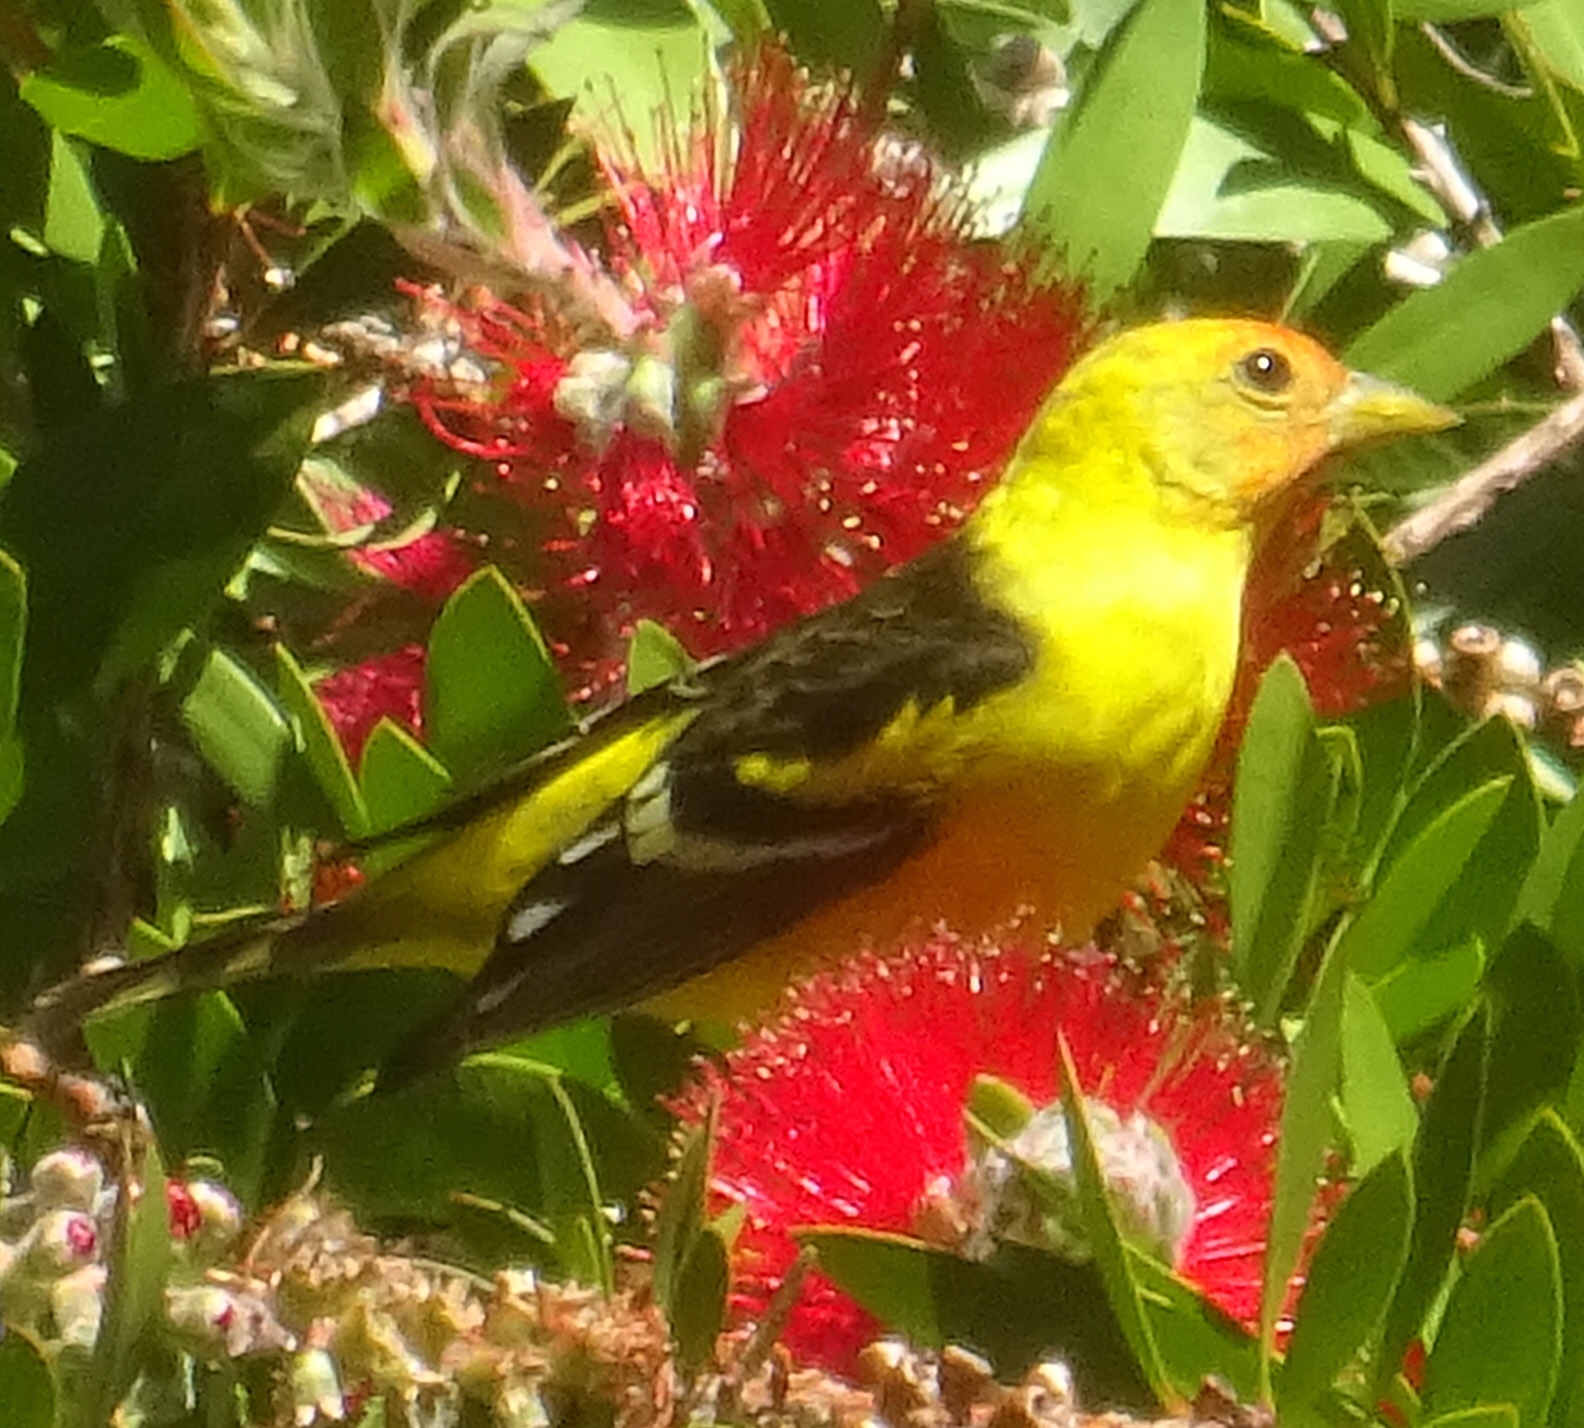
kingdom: Animalia
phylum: Chordata
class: Aves
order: Passeriformes
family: Cardinalidae
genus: Piranga
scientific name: Piranga ludoviciana
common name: Western tanager
